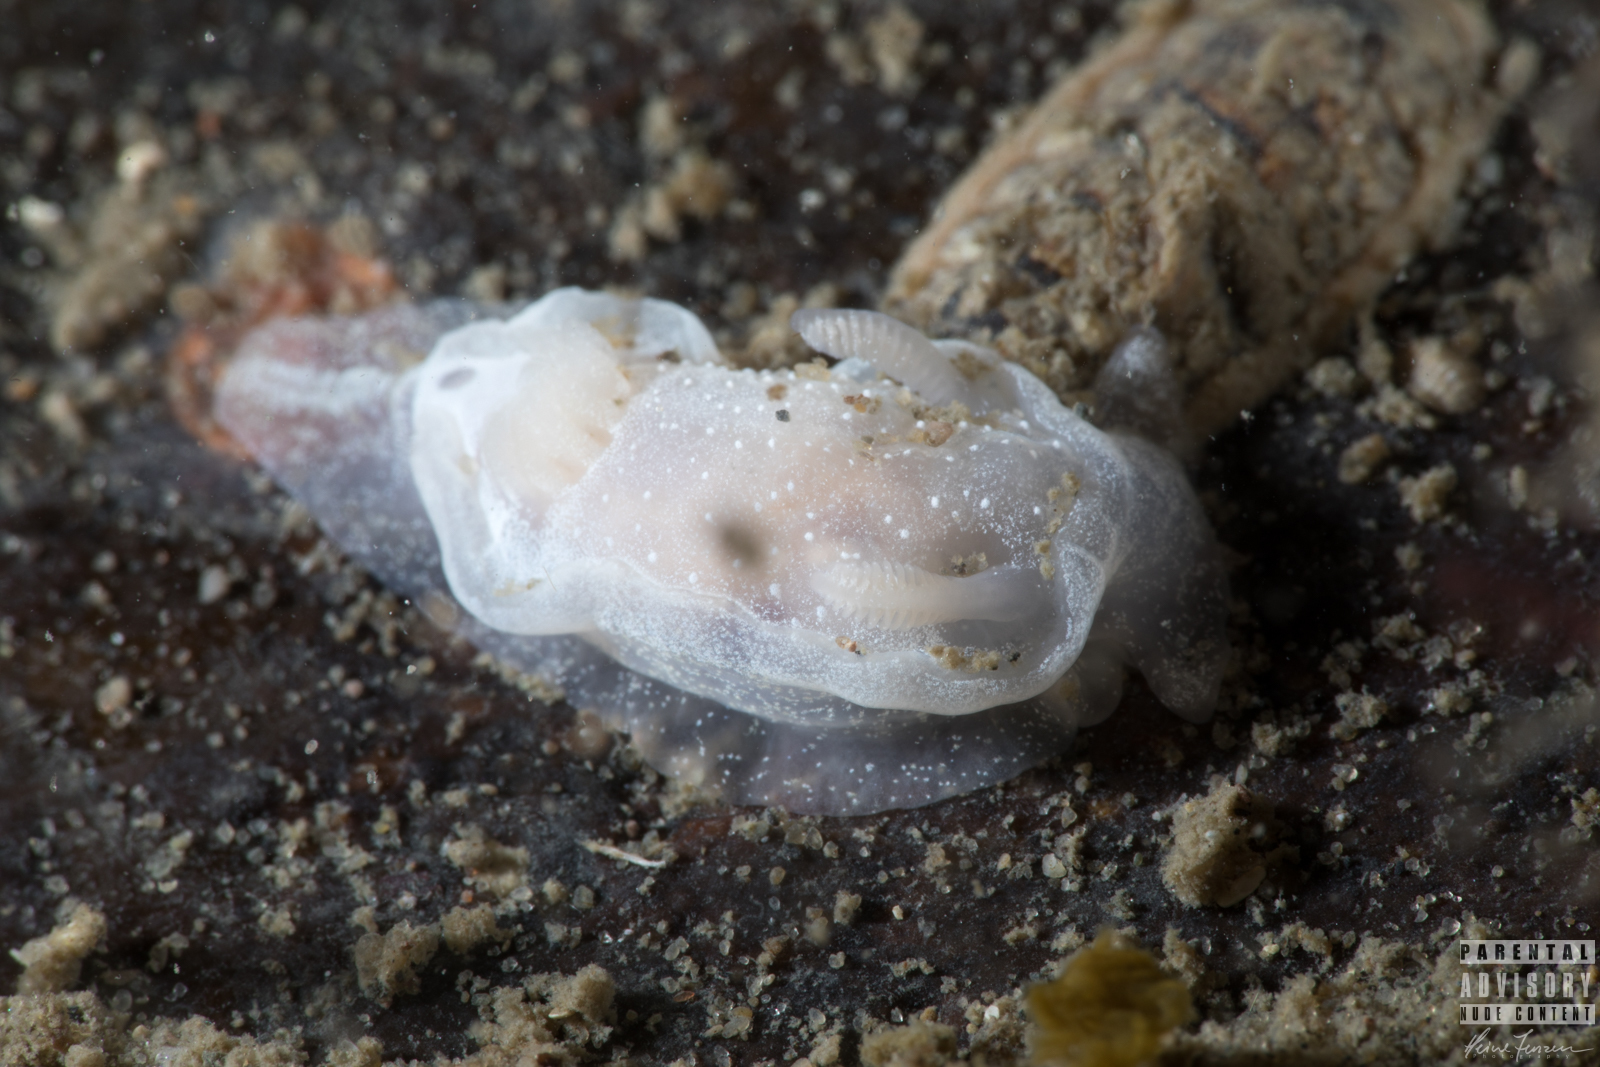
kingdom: Animalia
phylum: Mollusca
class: Gastropoda
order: Nudibranchia
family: Goniodorididae
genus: Okenia
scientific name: Okenia
